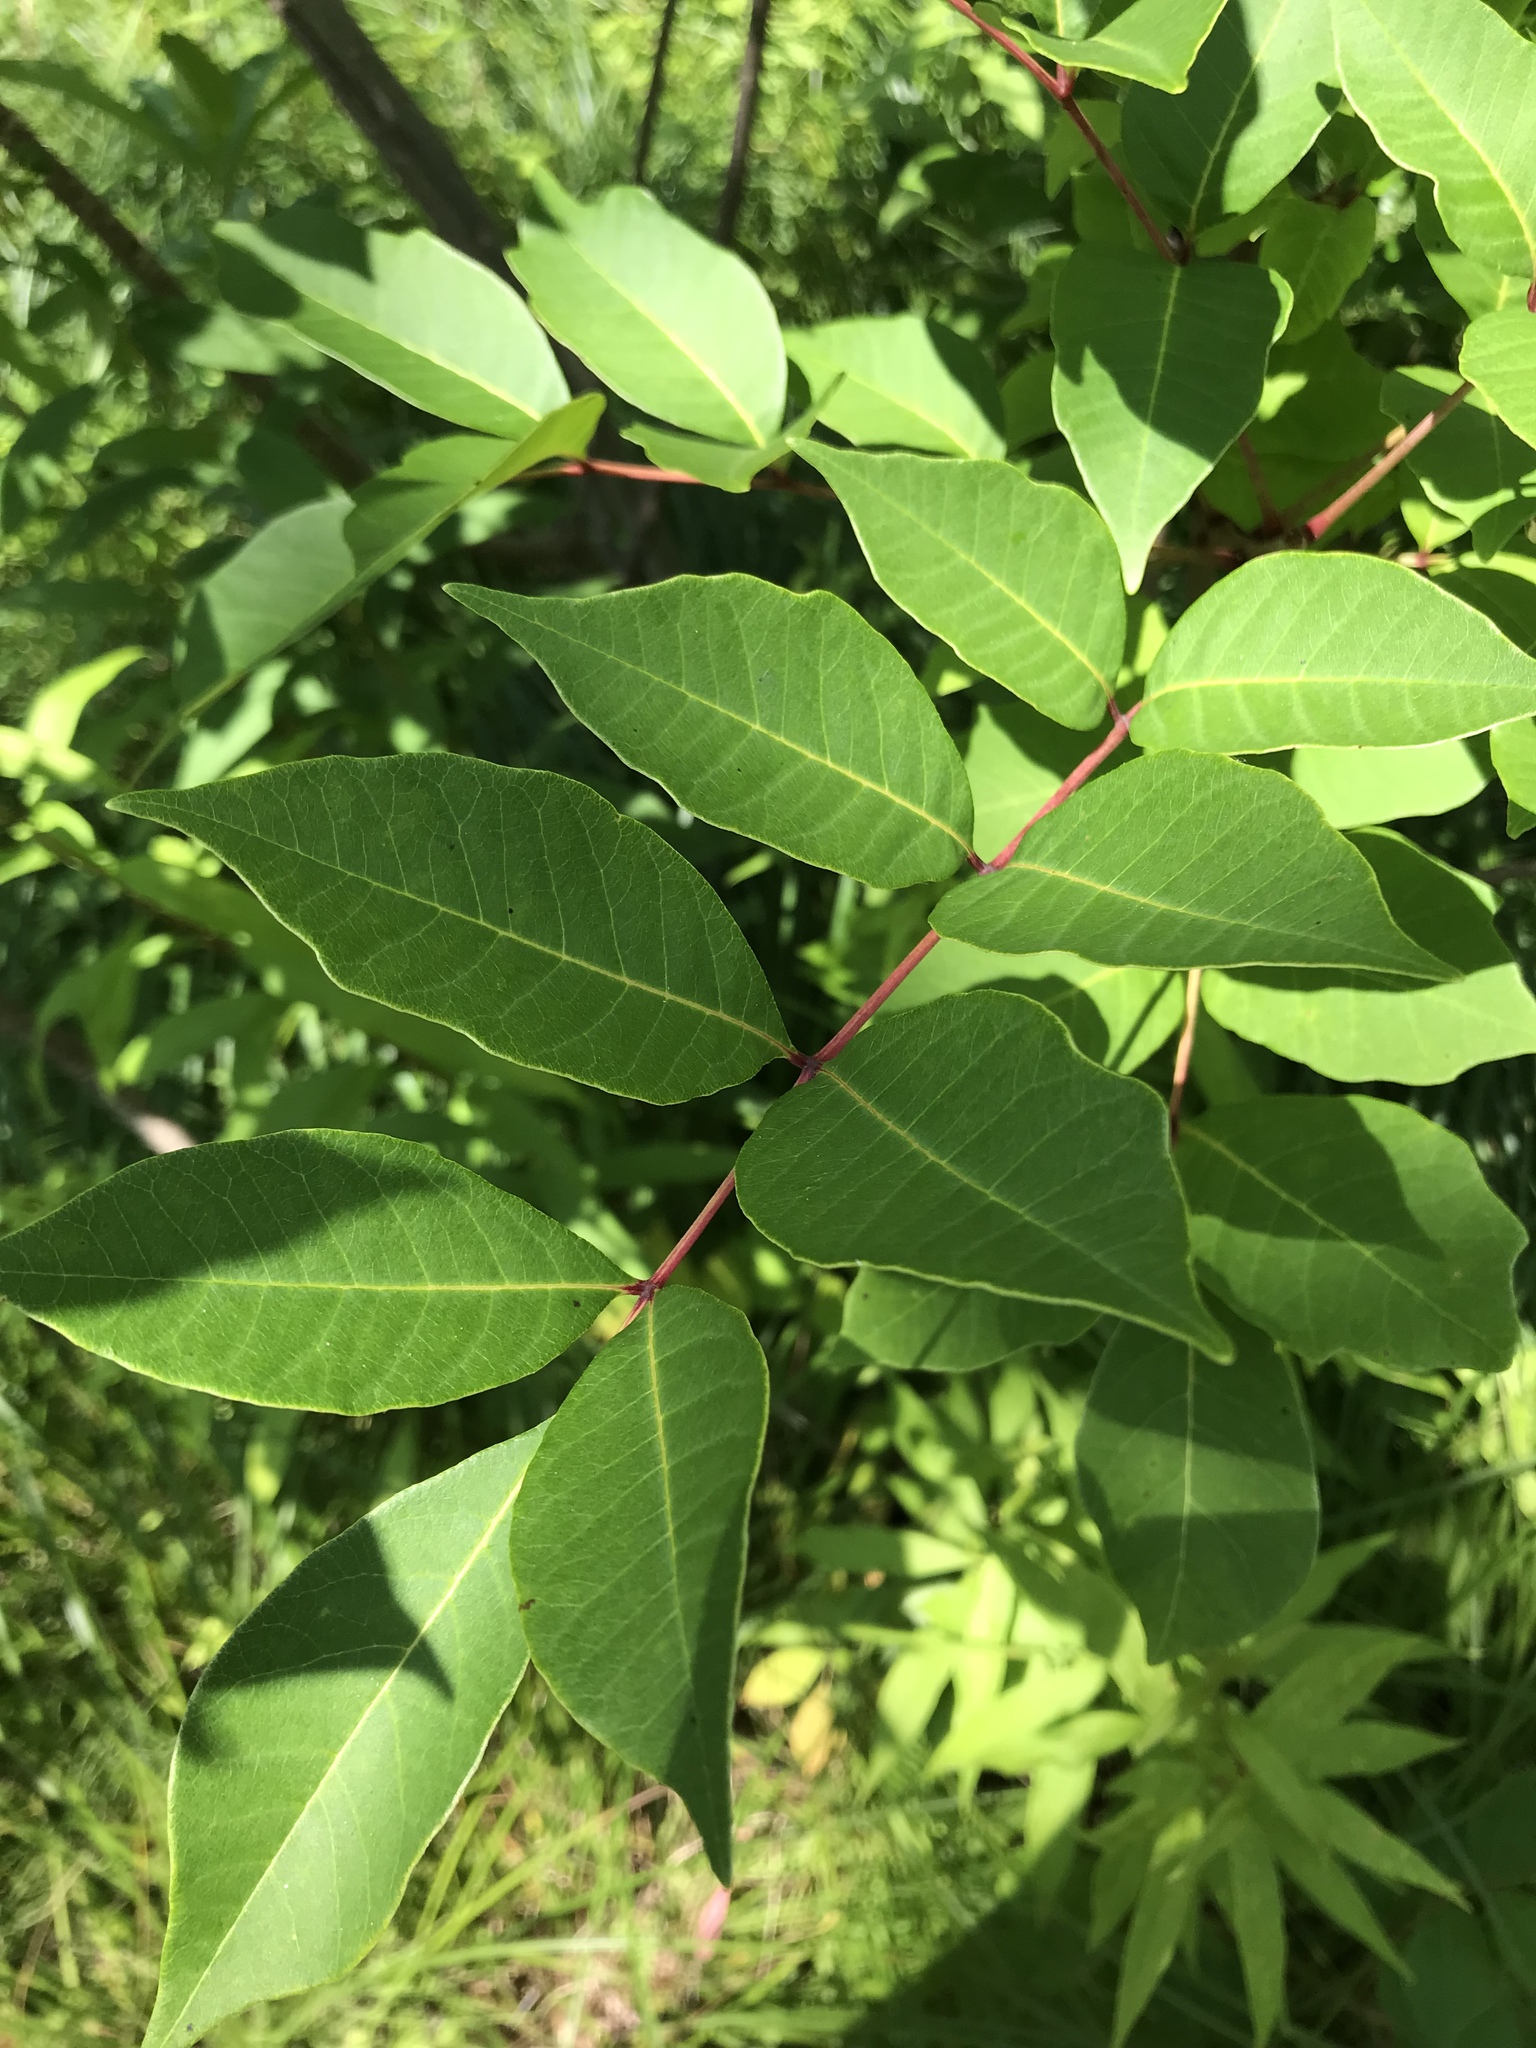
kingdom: Plantae
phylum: Tracheophyta
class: Magnoliopsida
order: Sapindales
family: Anacardiaceae
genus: Toxicodendron
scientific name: Toxicodendron vernix
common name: Poison sumac
